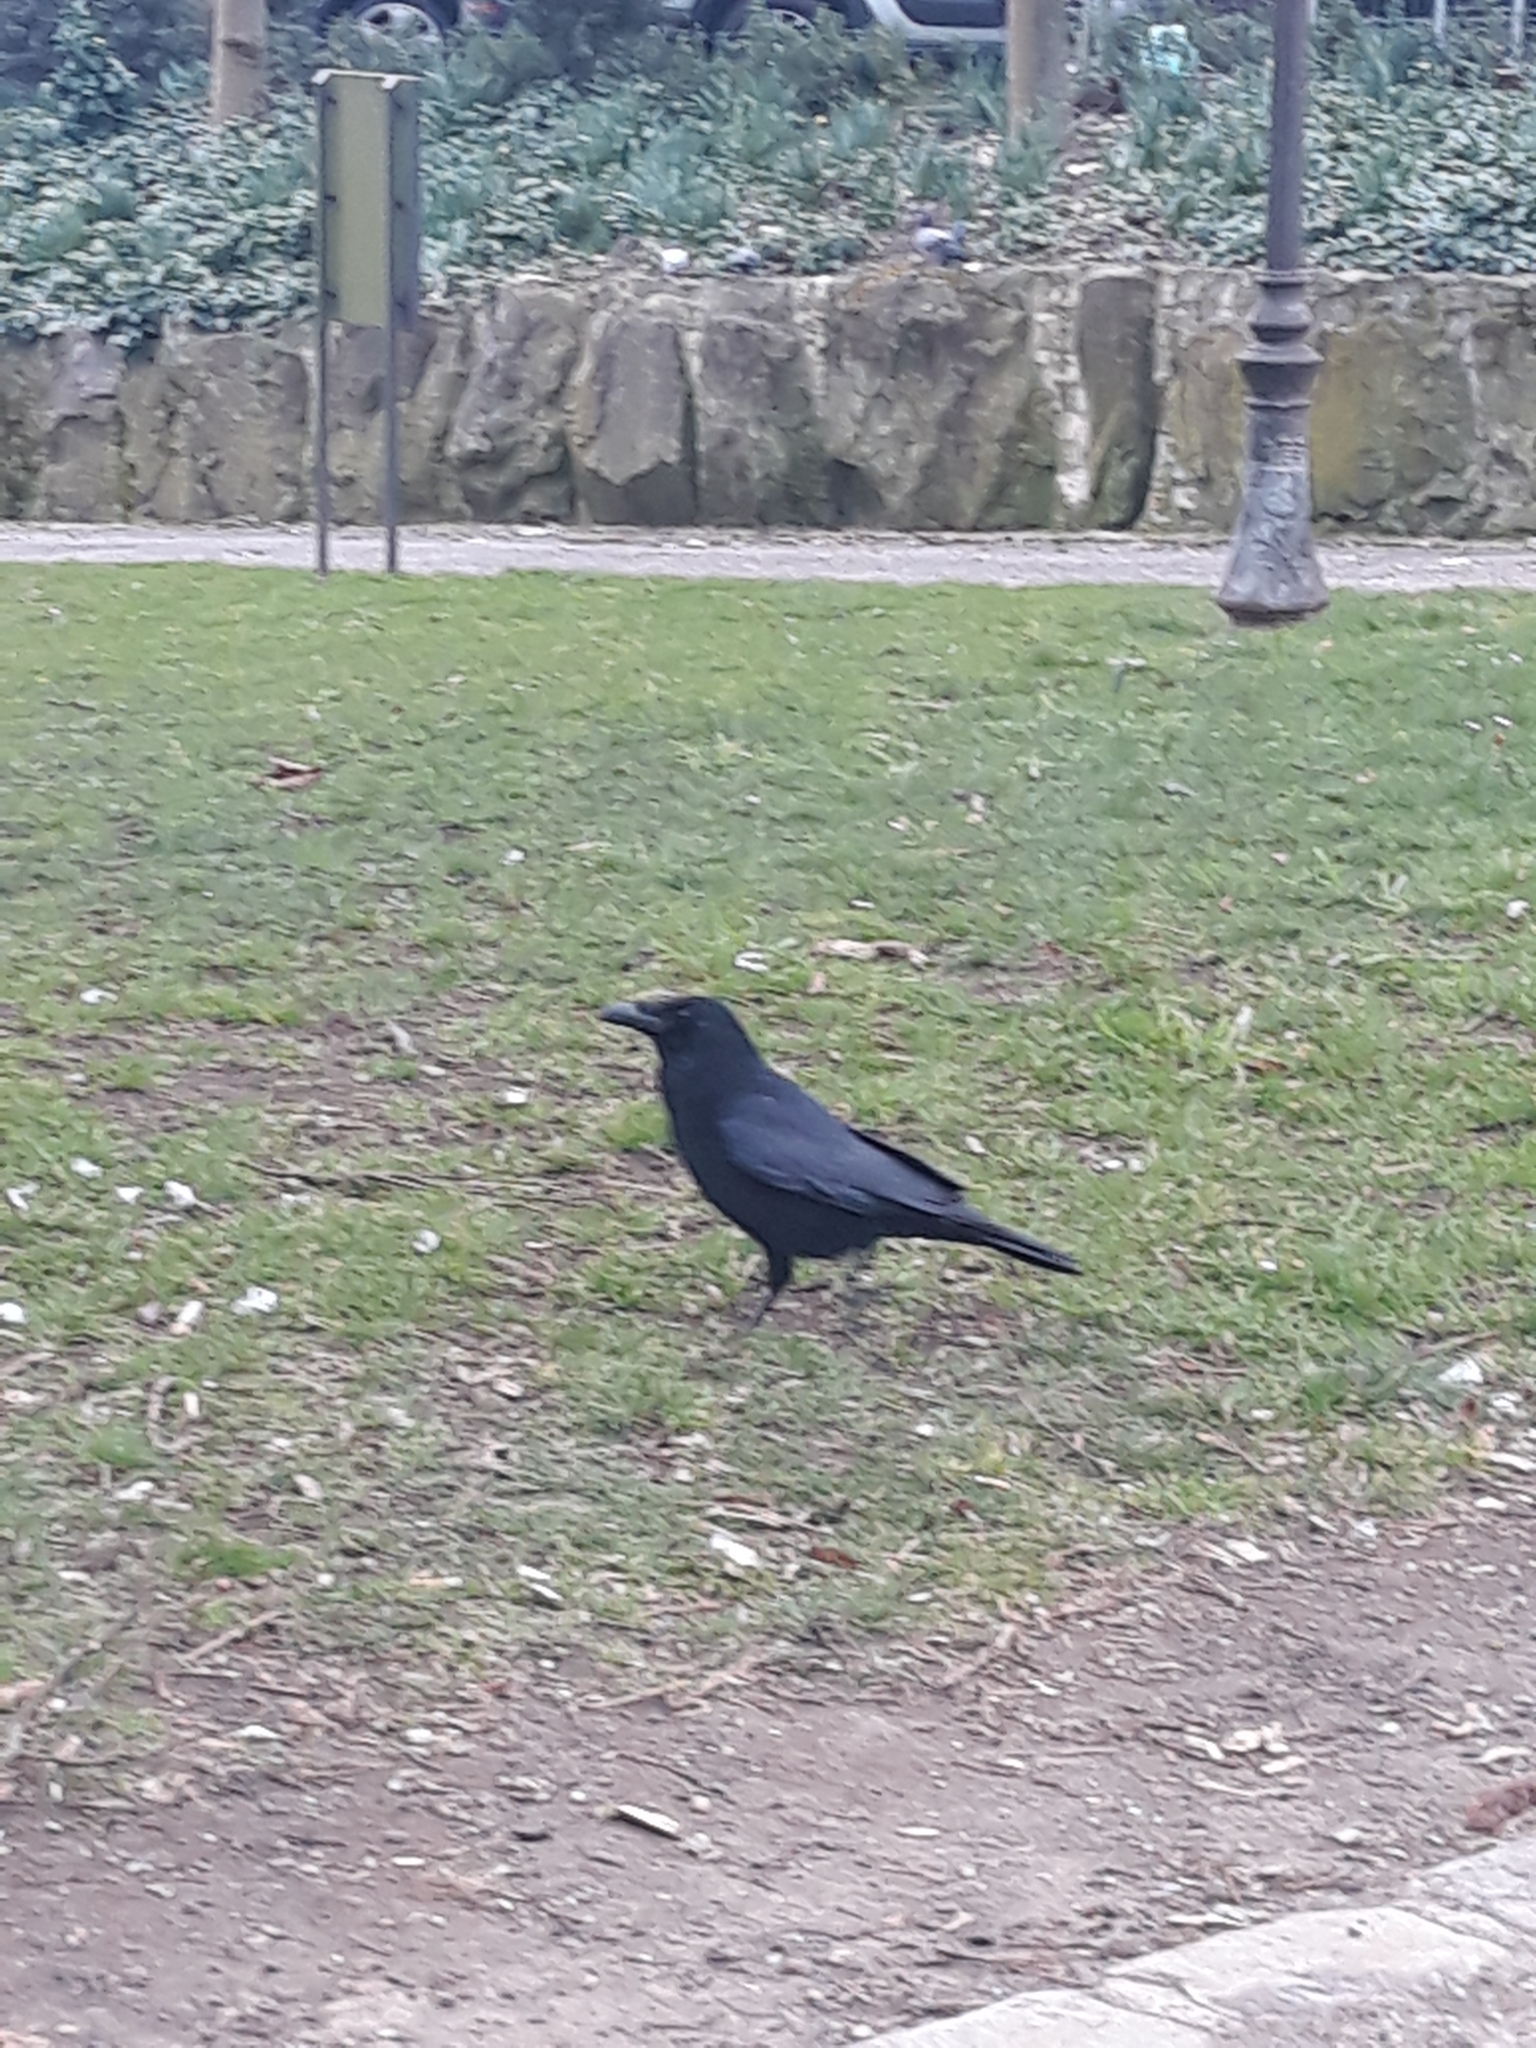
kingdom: Animalia
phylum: Chordata
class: Aves
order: Passeriformes
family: Corvidae
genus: Corvus
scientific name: Corvus corone
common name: Carrion crow
